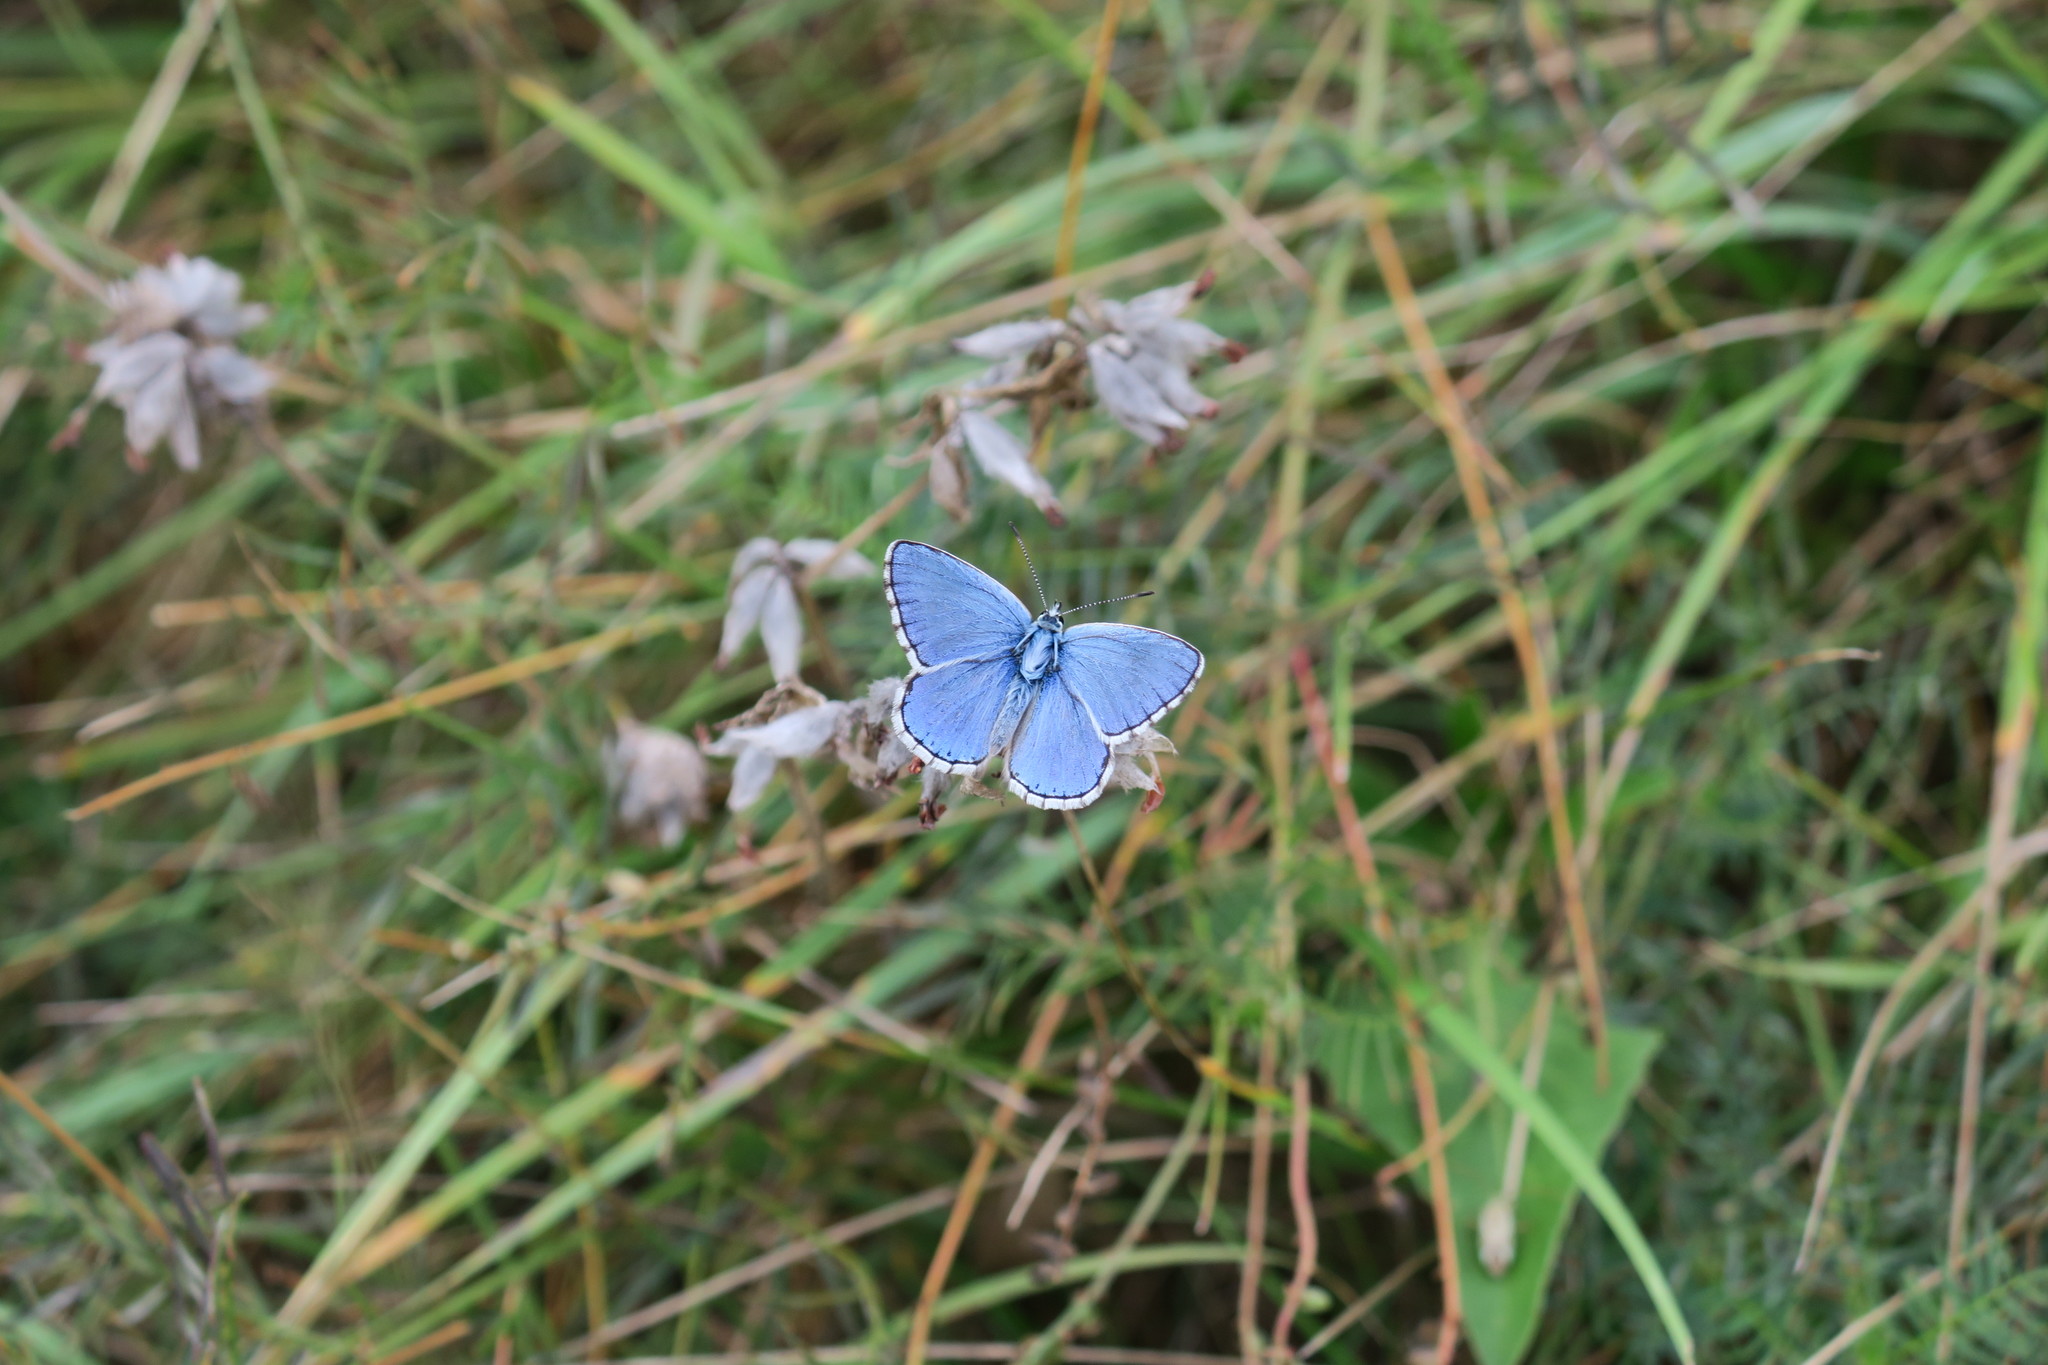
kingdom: Animalia
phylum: Arthropoda
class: Insecta
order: Lepidoptera
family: Lycaenidae
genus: Lysandra
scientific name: Lysandra bellargus
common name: Adonis blue
